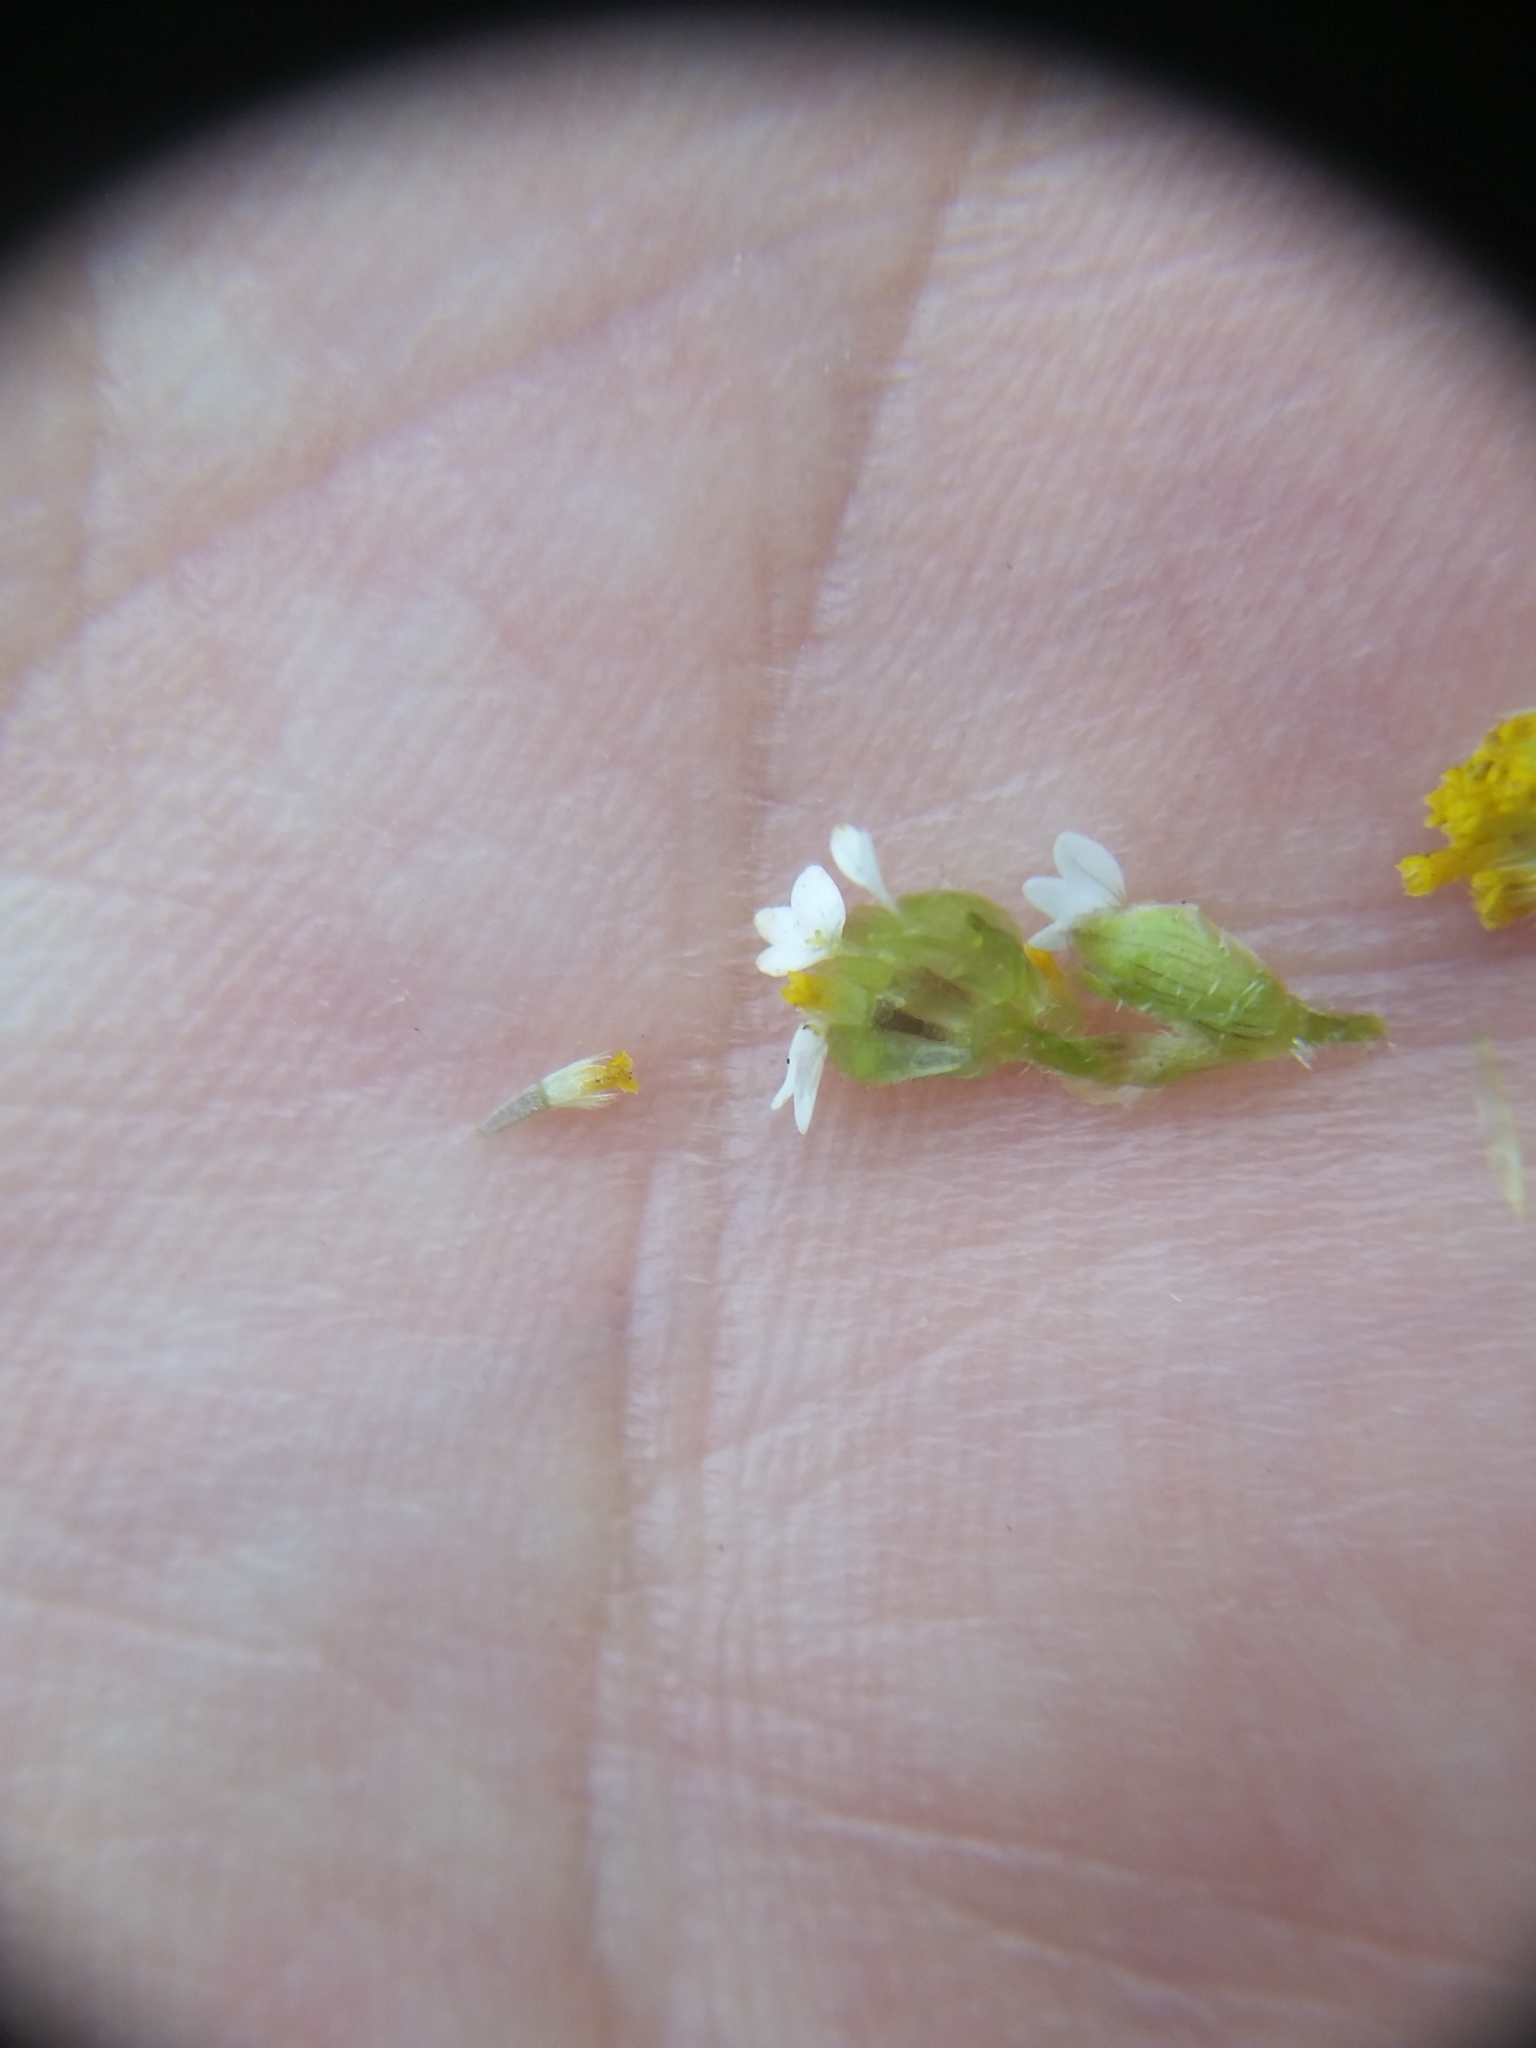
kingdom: Plantae
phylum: Tracheophyta
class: Magnoliopsida
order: Asterales
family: Asteraceae
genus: Galinsoga
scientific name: Galinsoga quadriradiata
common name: Shaggy soldier
